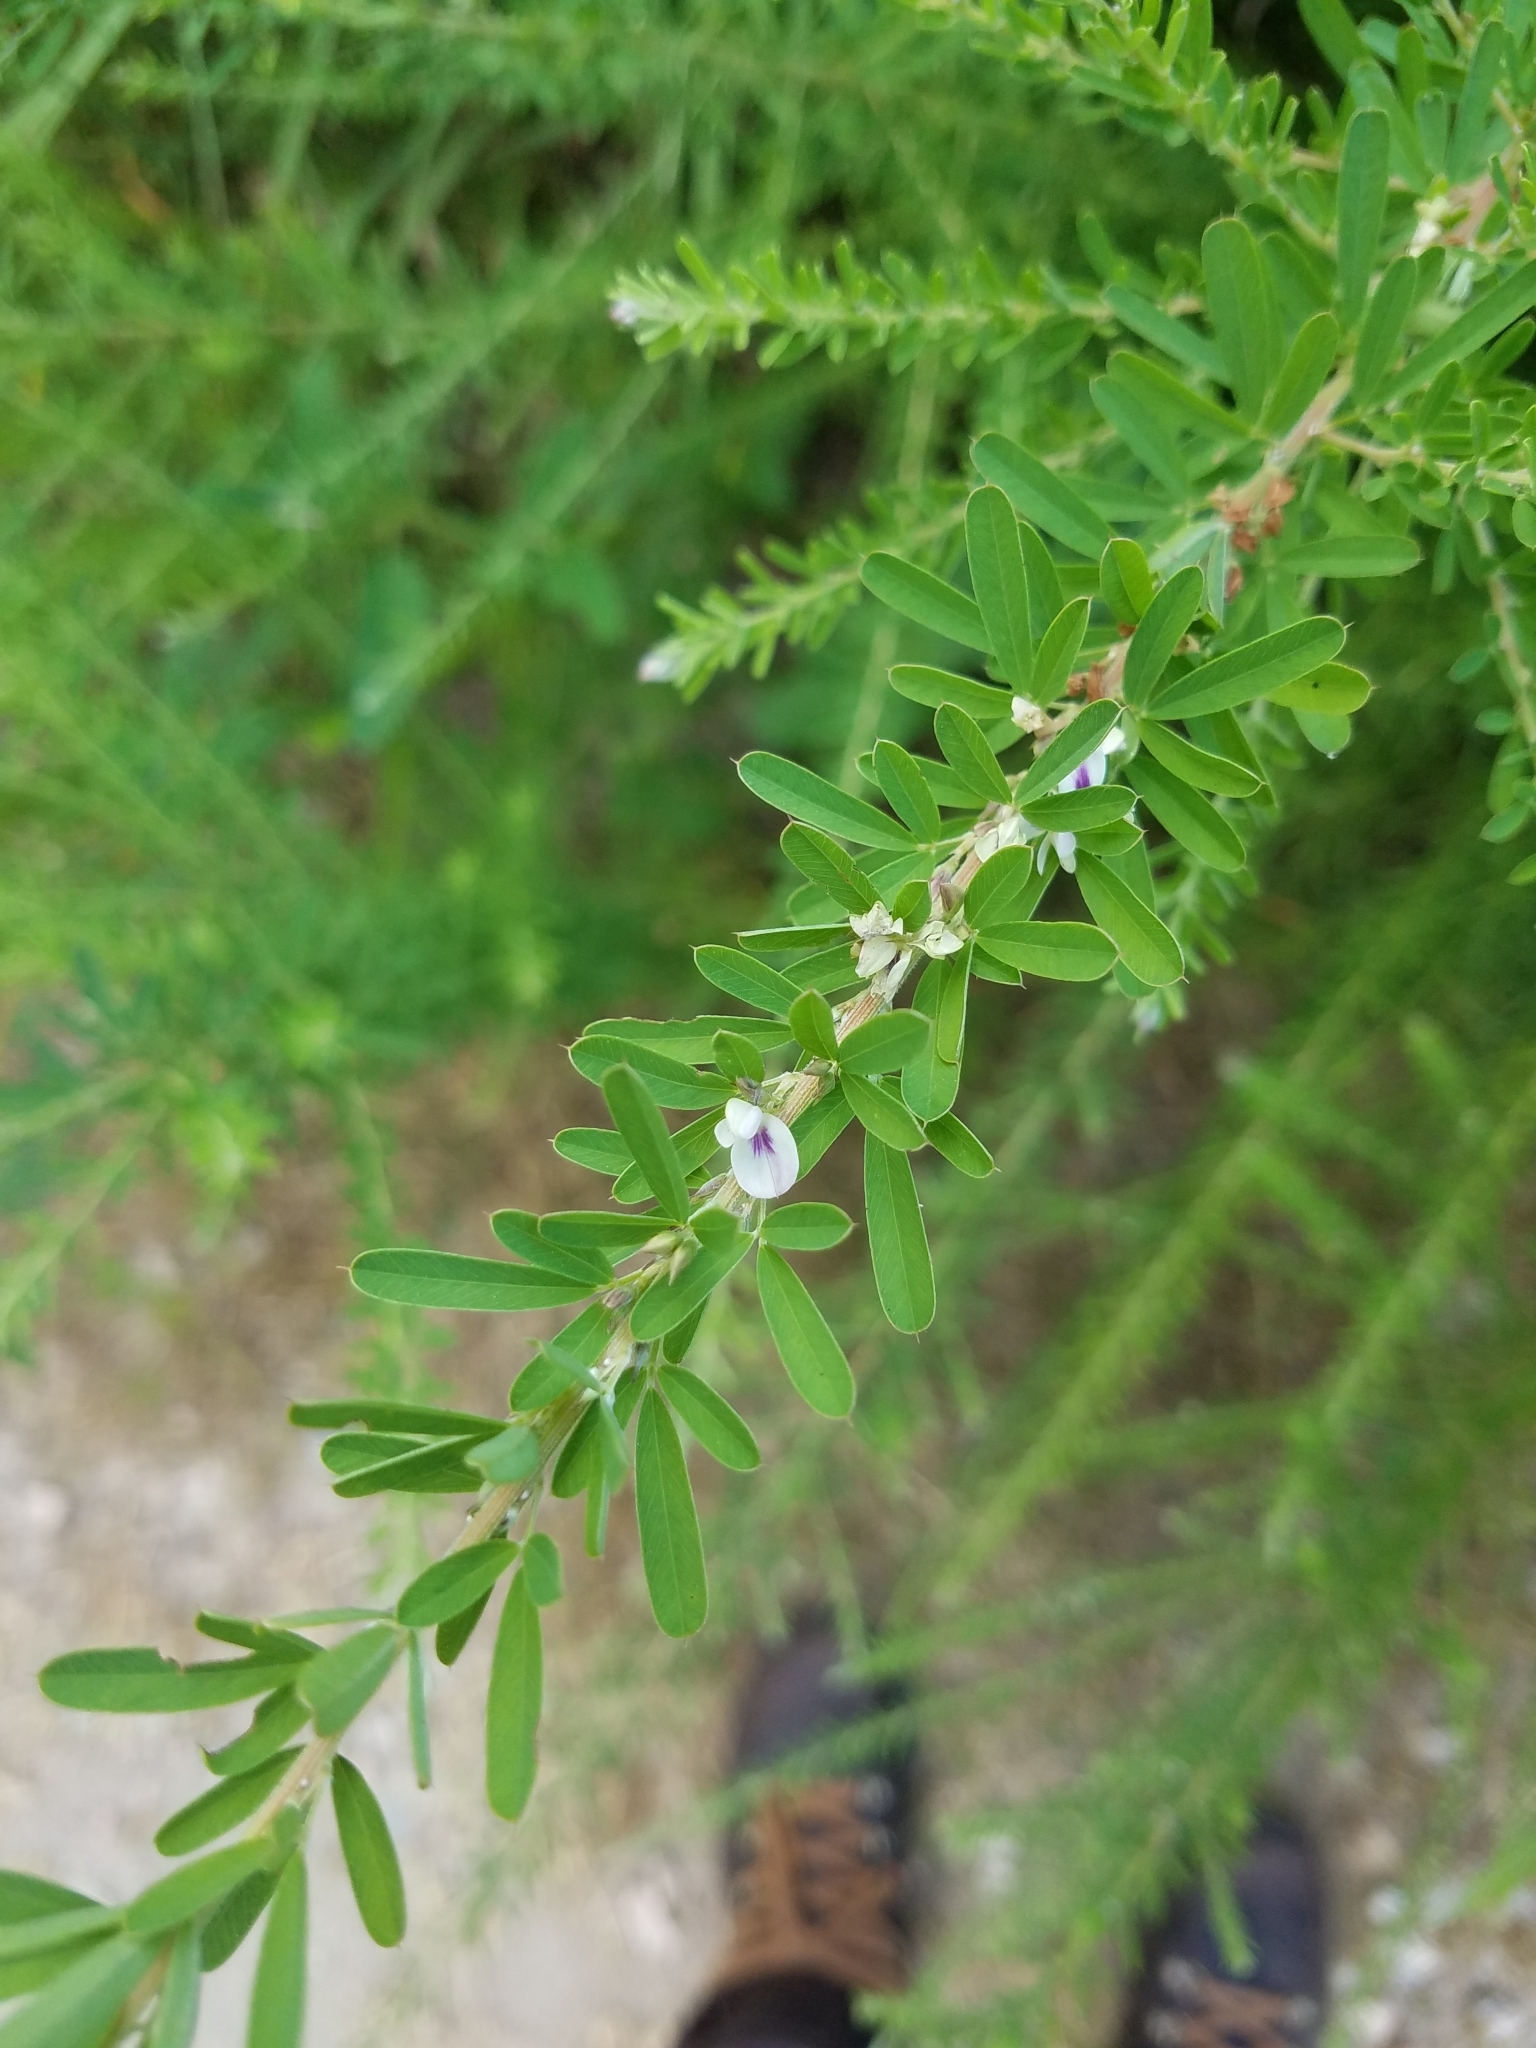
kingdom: Plantae
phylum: Tracheophyta
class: Magnoliopsida
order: Fabales
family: Fabaceae
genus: Lespedeza
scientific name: Lespedeza cuneata
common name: Chinese bush-clover
